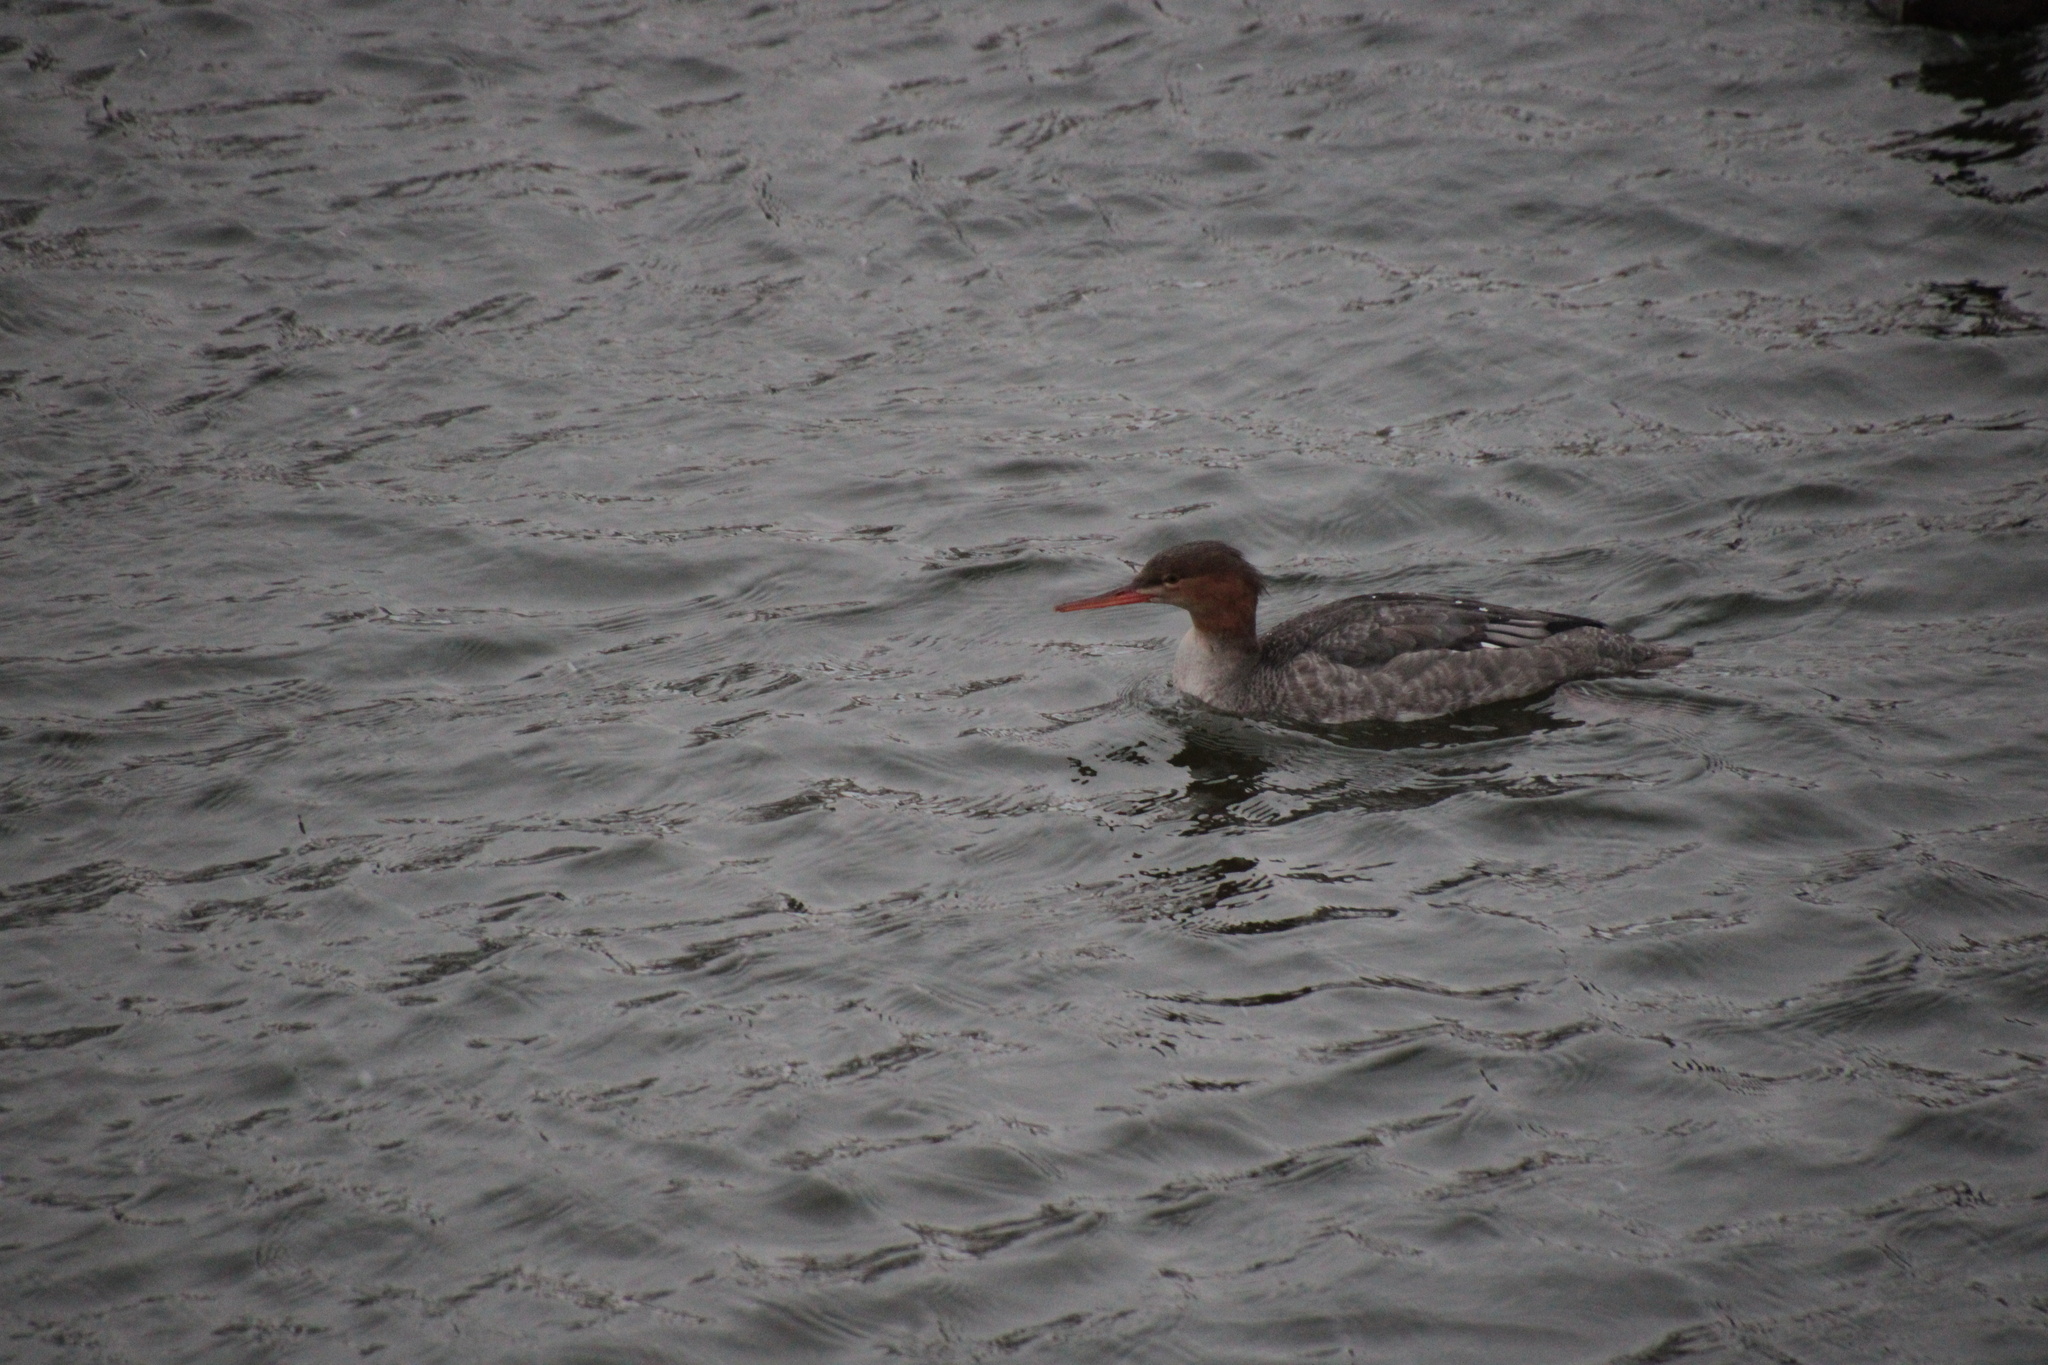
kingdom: Animalia
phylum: Chordata
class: Aves
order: Anseriformes
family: Anatidae
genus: Mergus
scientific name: Mergus serrator
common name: Red-breasted merganser
